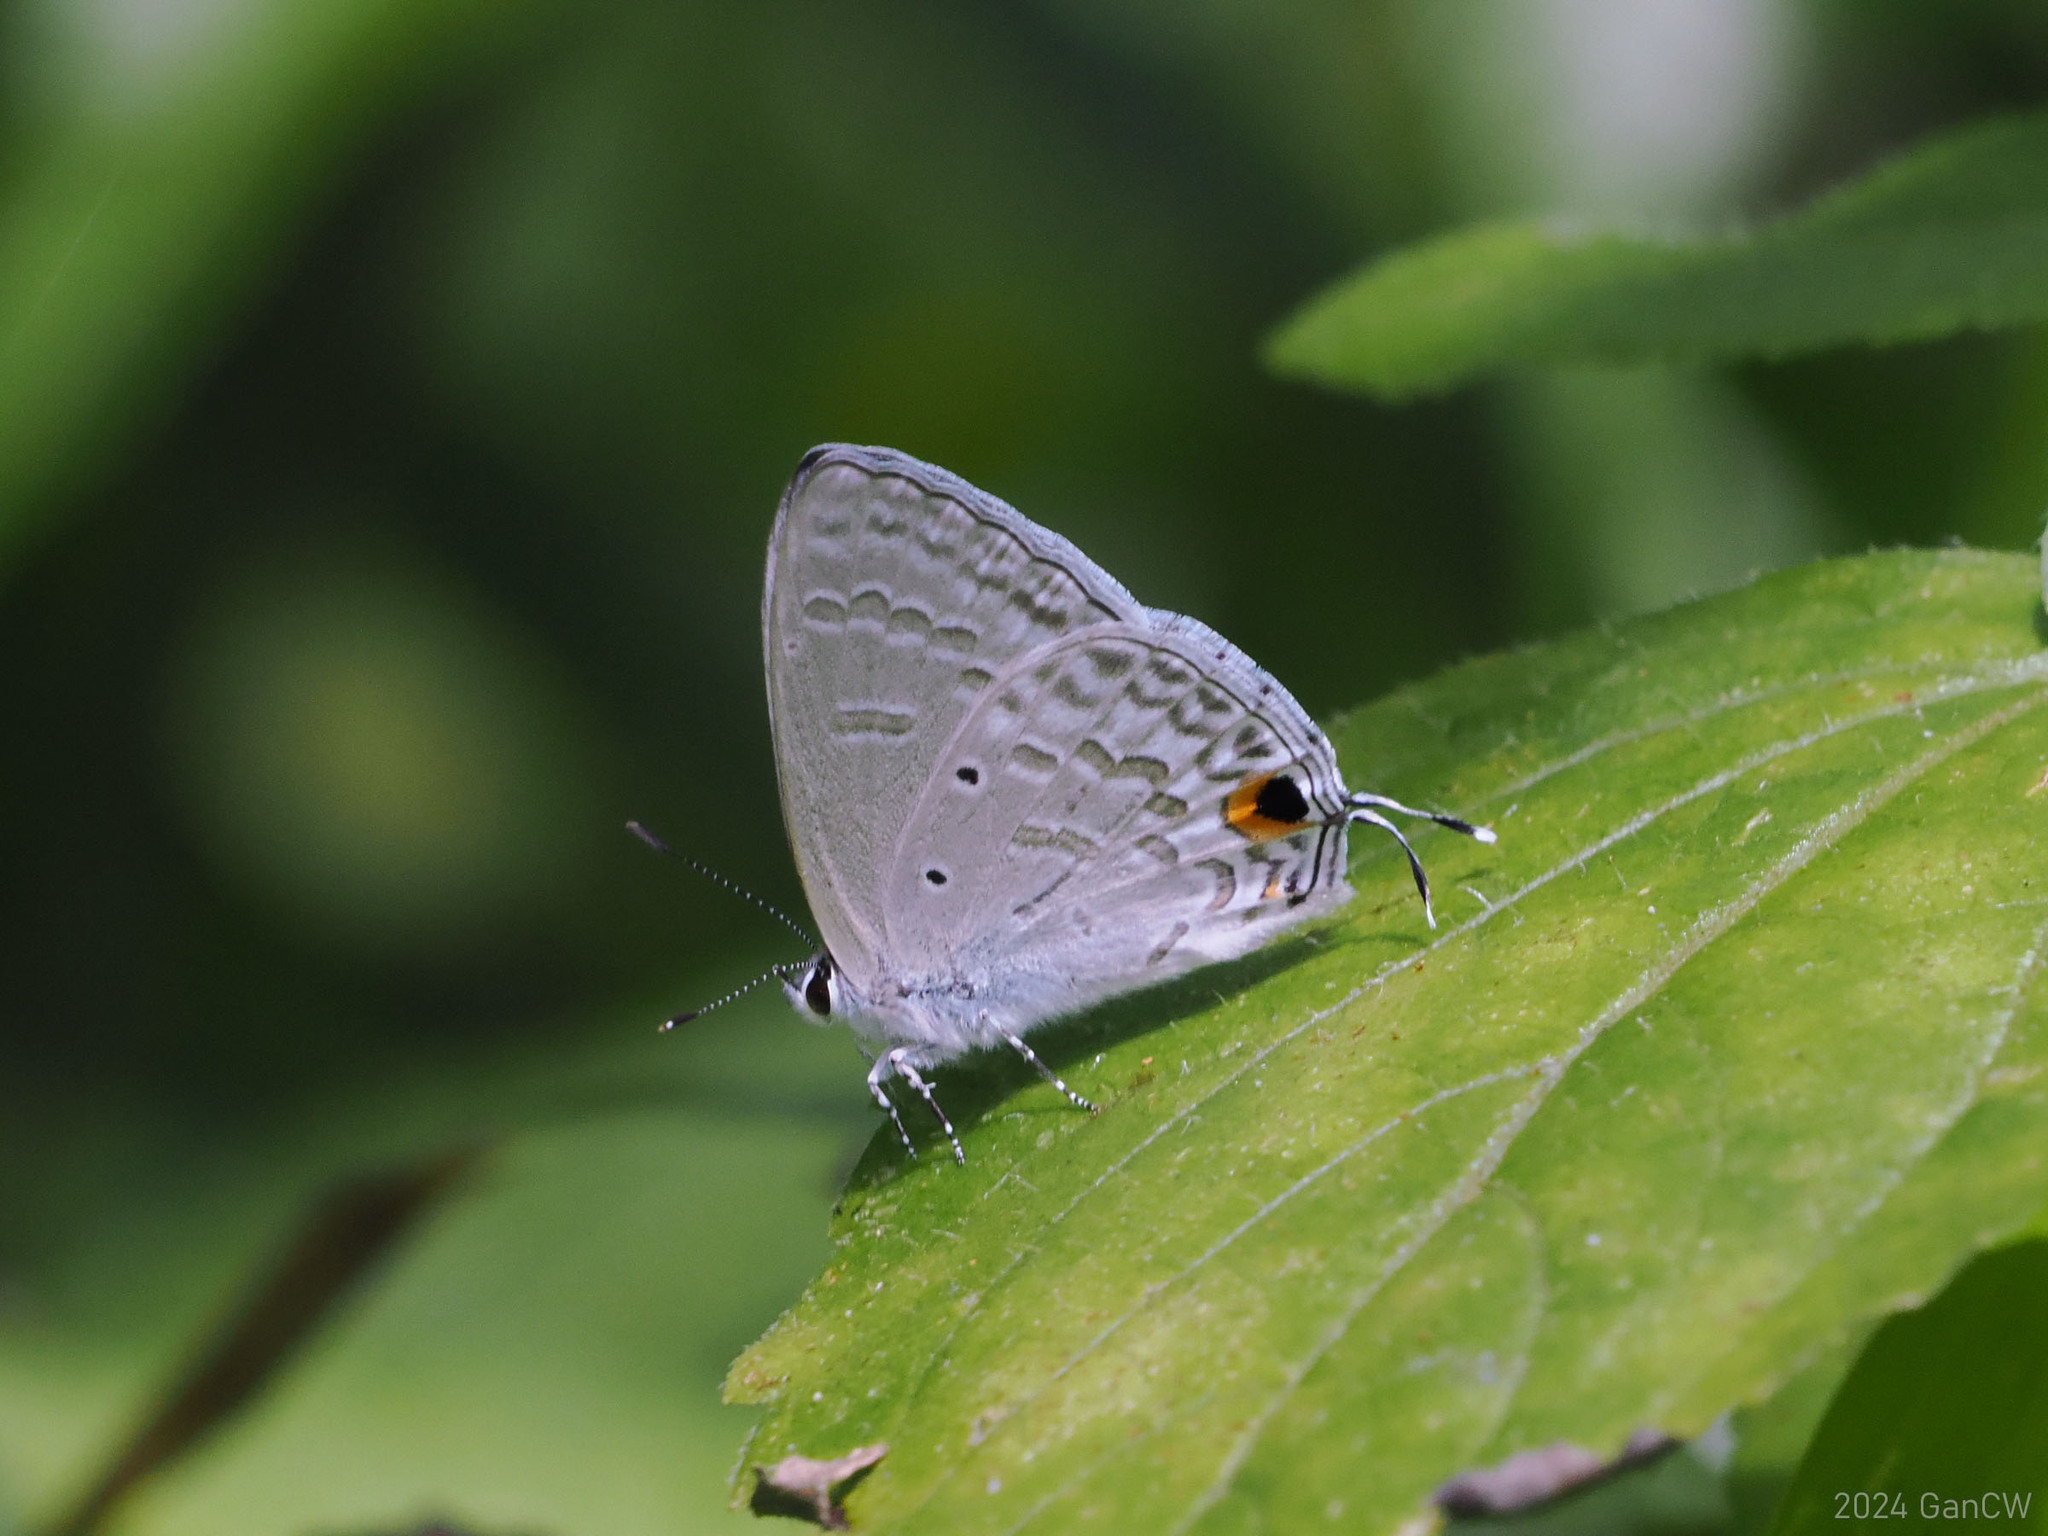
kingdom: Animalia
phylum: Arthropoda
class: Insecta
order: Lepidoptera
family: Lycaenidae
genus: Catochrysops
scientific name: Catochrysops panormus
